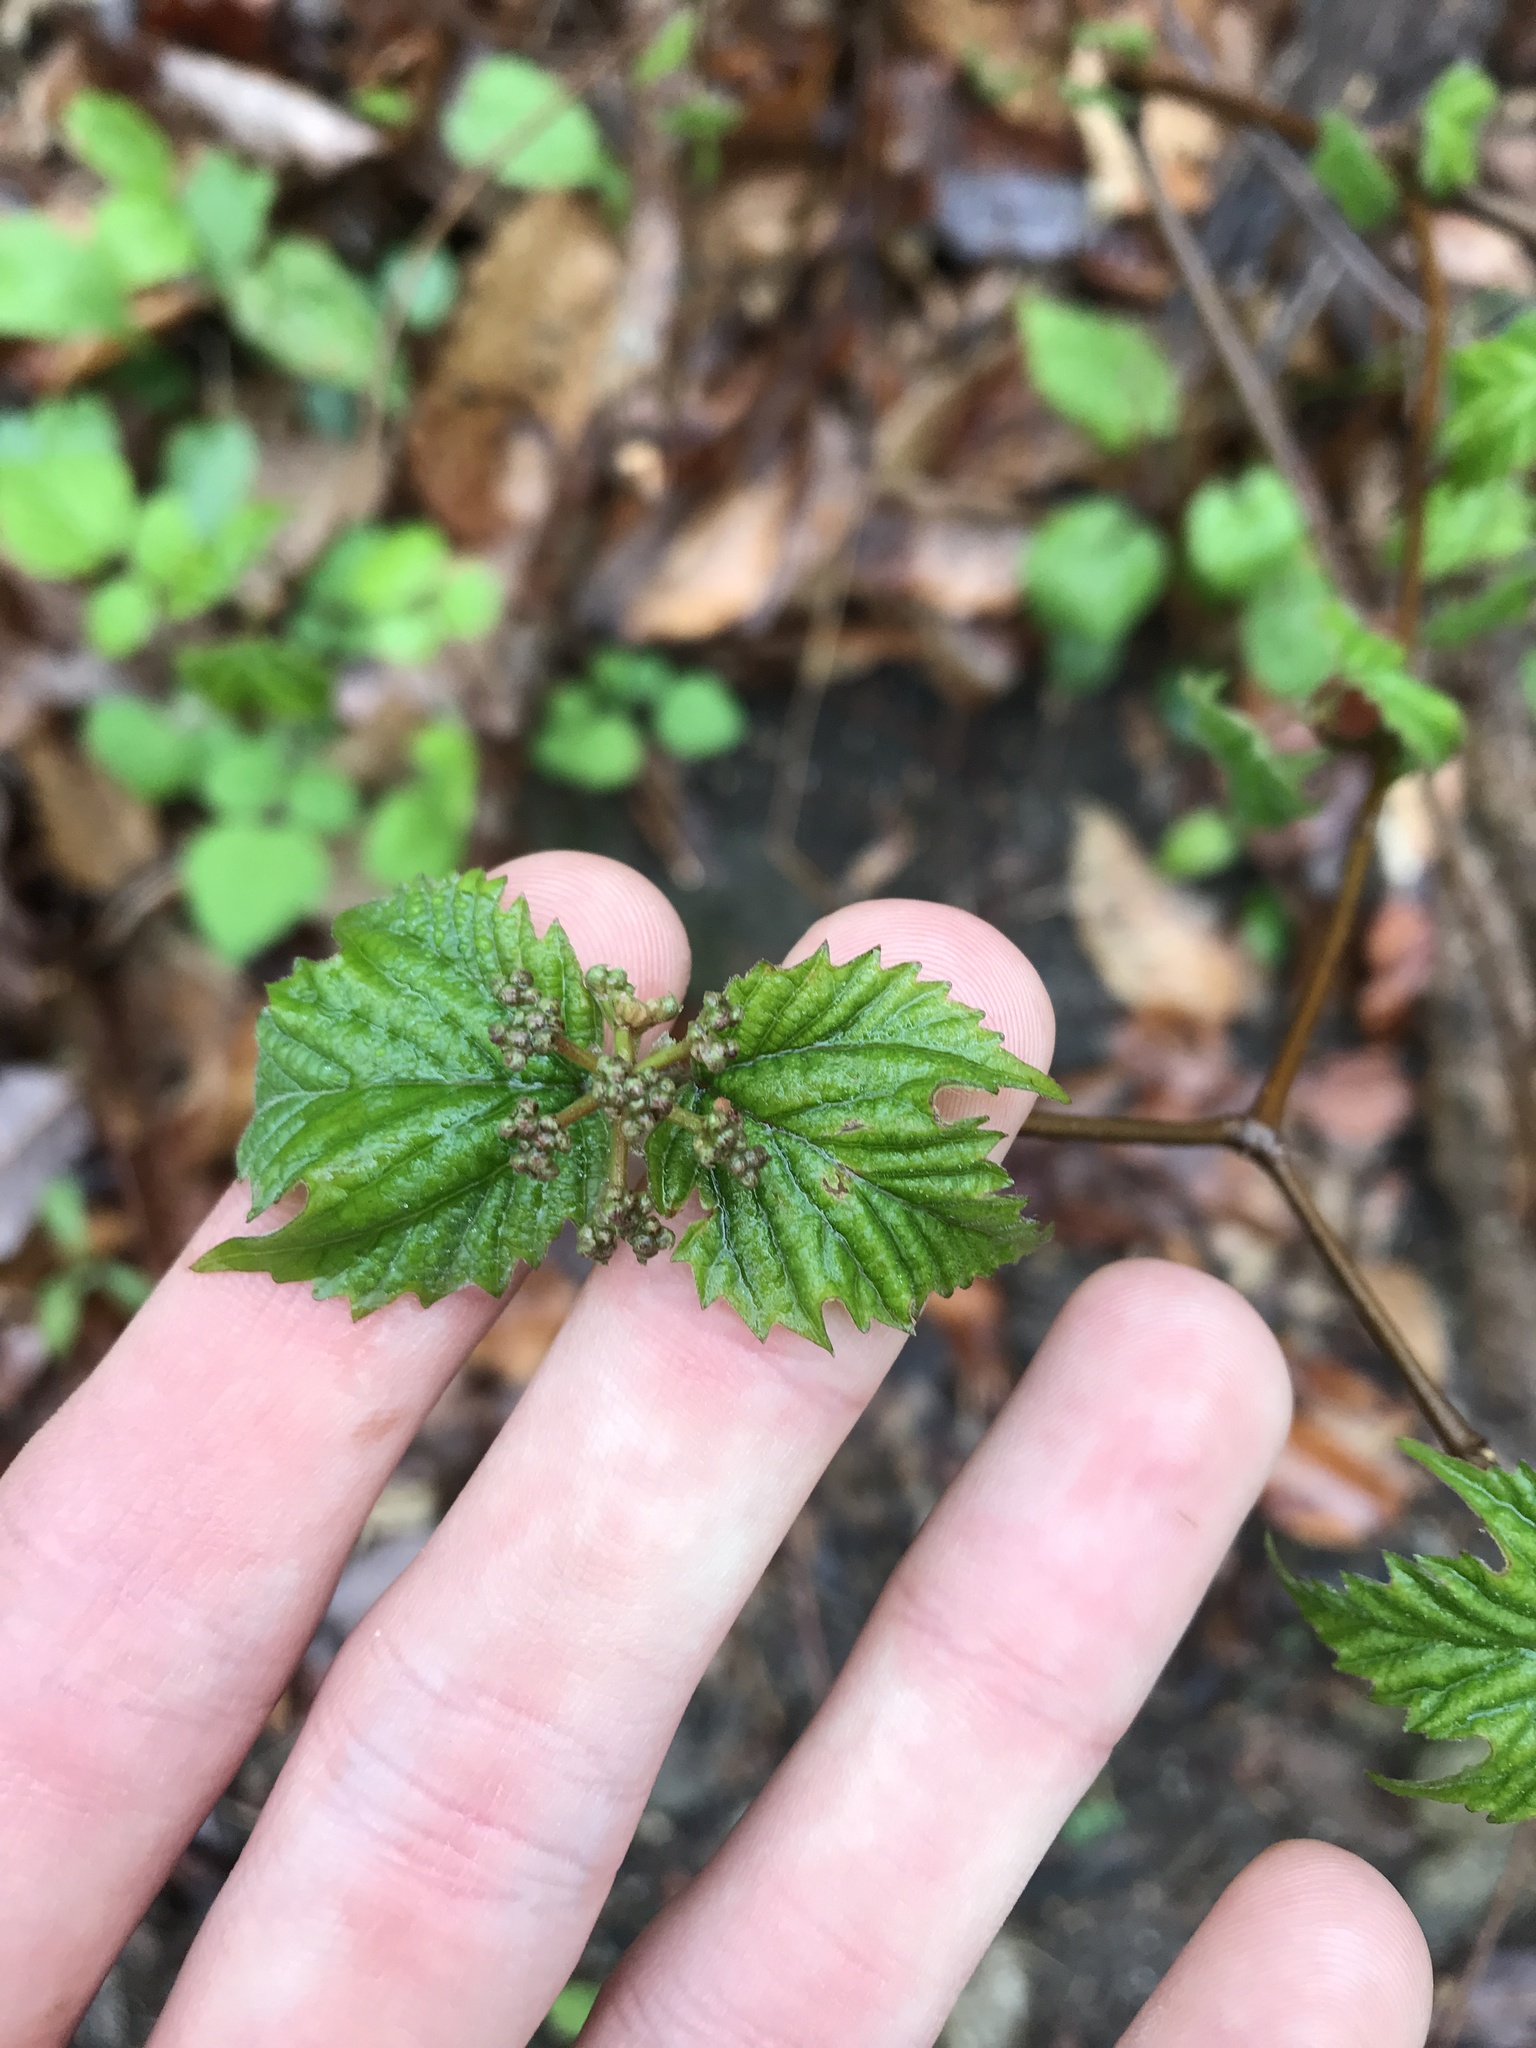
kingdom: Plantae
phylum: Tracheophyta
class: Magnoliopsida
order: Dipsacales
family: Viburnaceae
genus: Viburnum
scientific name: Viburnum acerifolium
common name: Dockmackie
